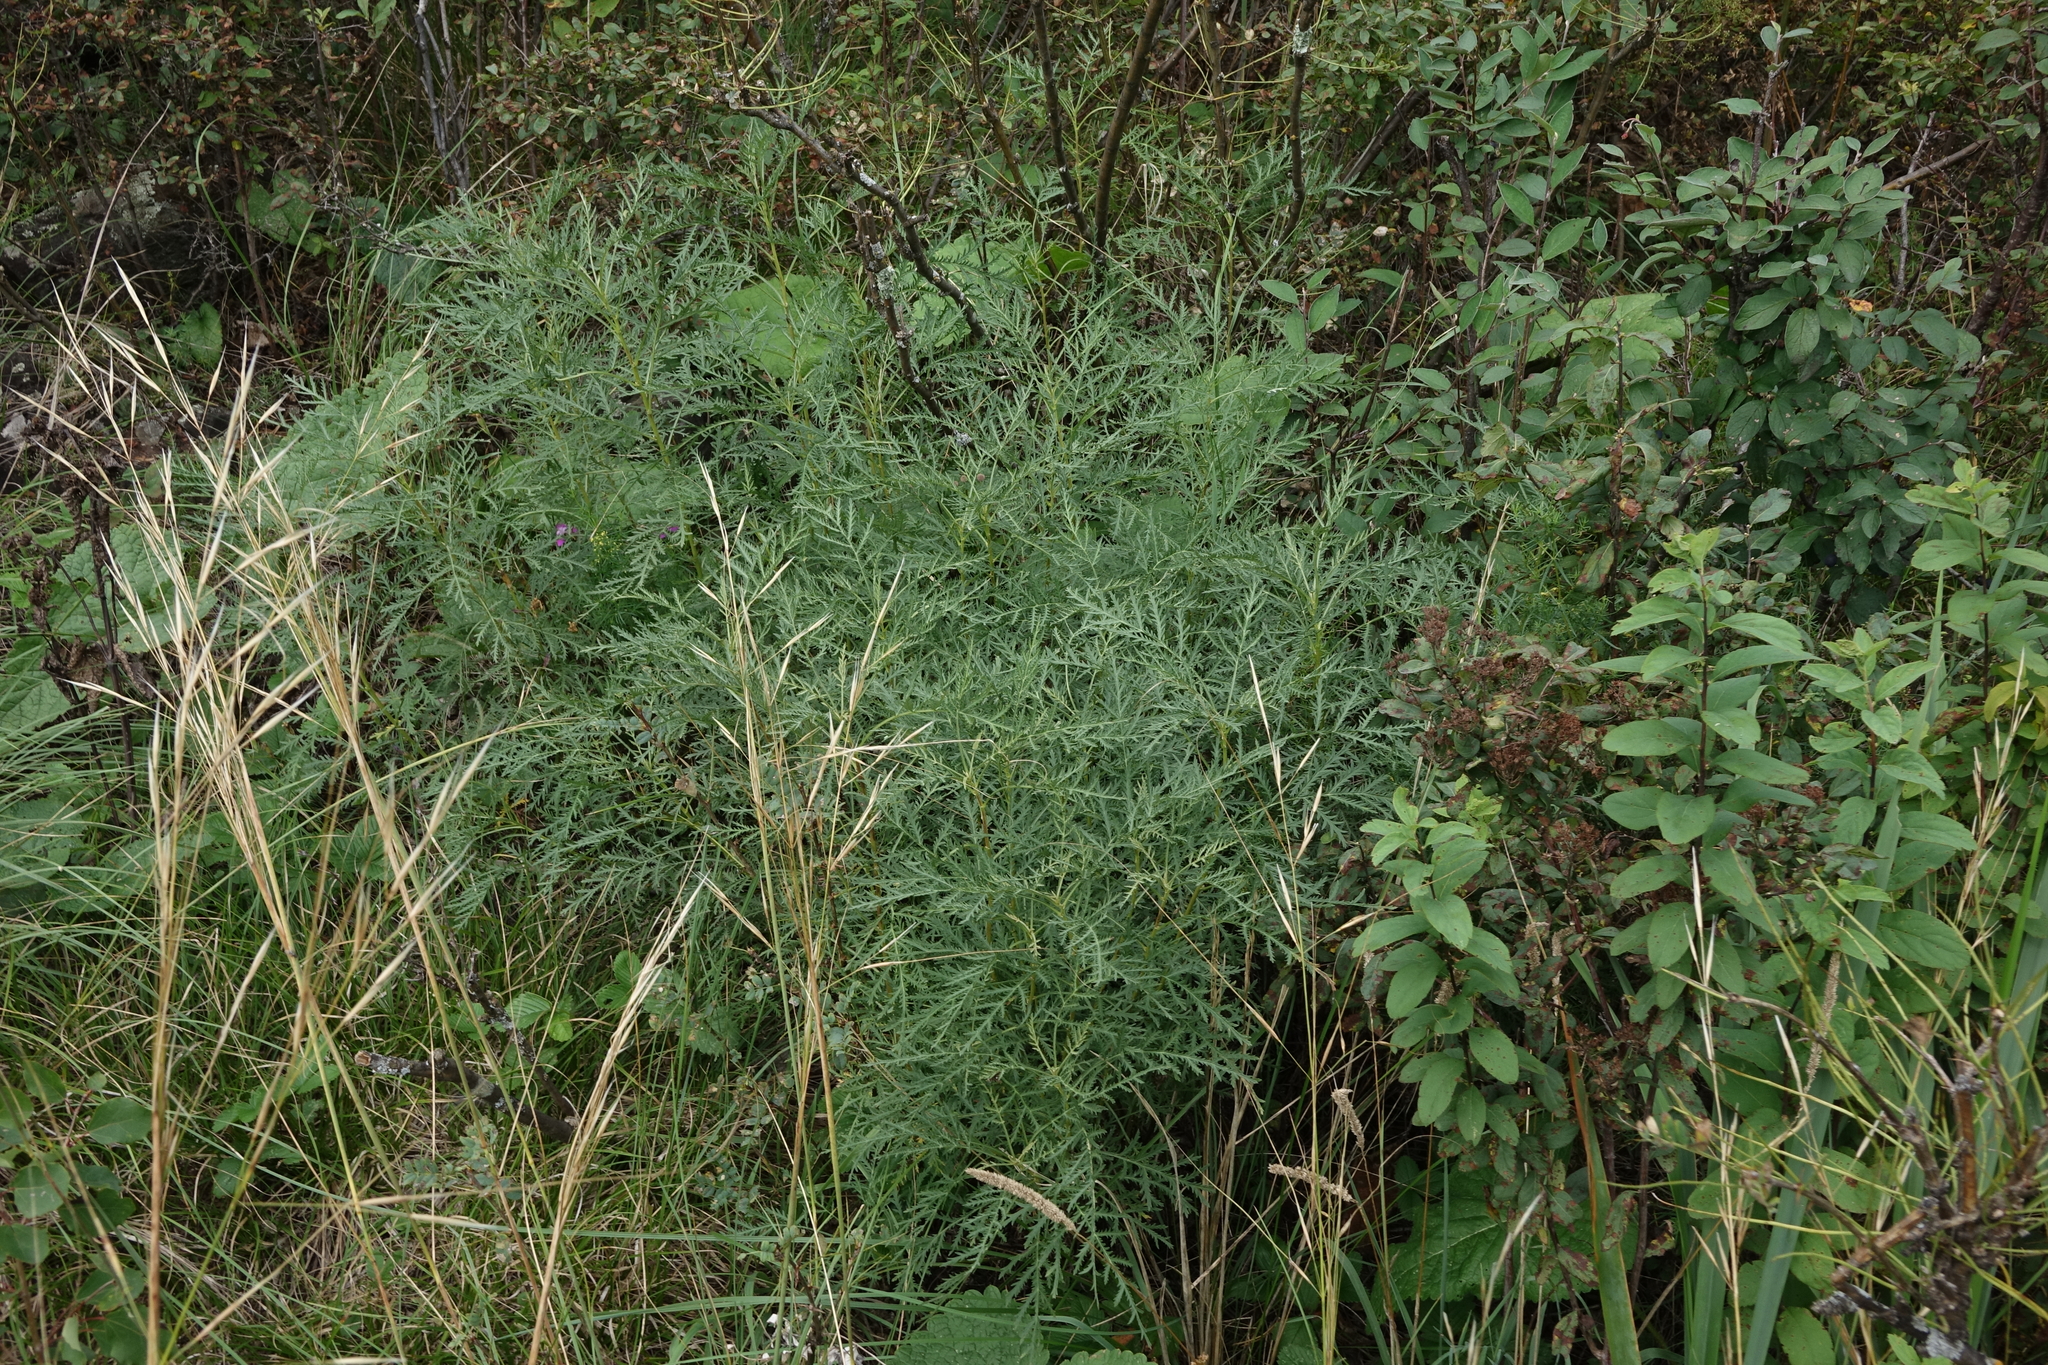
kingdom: Plantae
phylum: Tracheophyta
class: Magnoliopsida
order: Asterales
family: Asteraceae
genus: Artemisia
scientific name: Artemisia gmelinii
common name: Gmelin's wormwood
